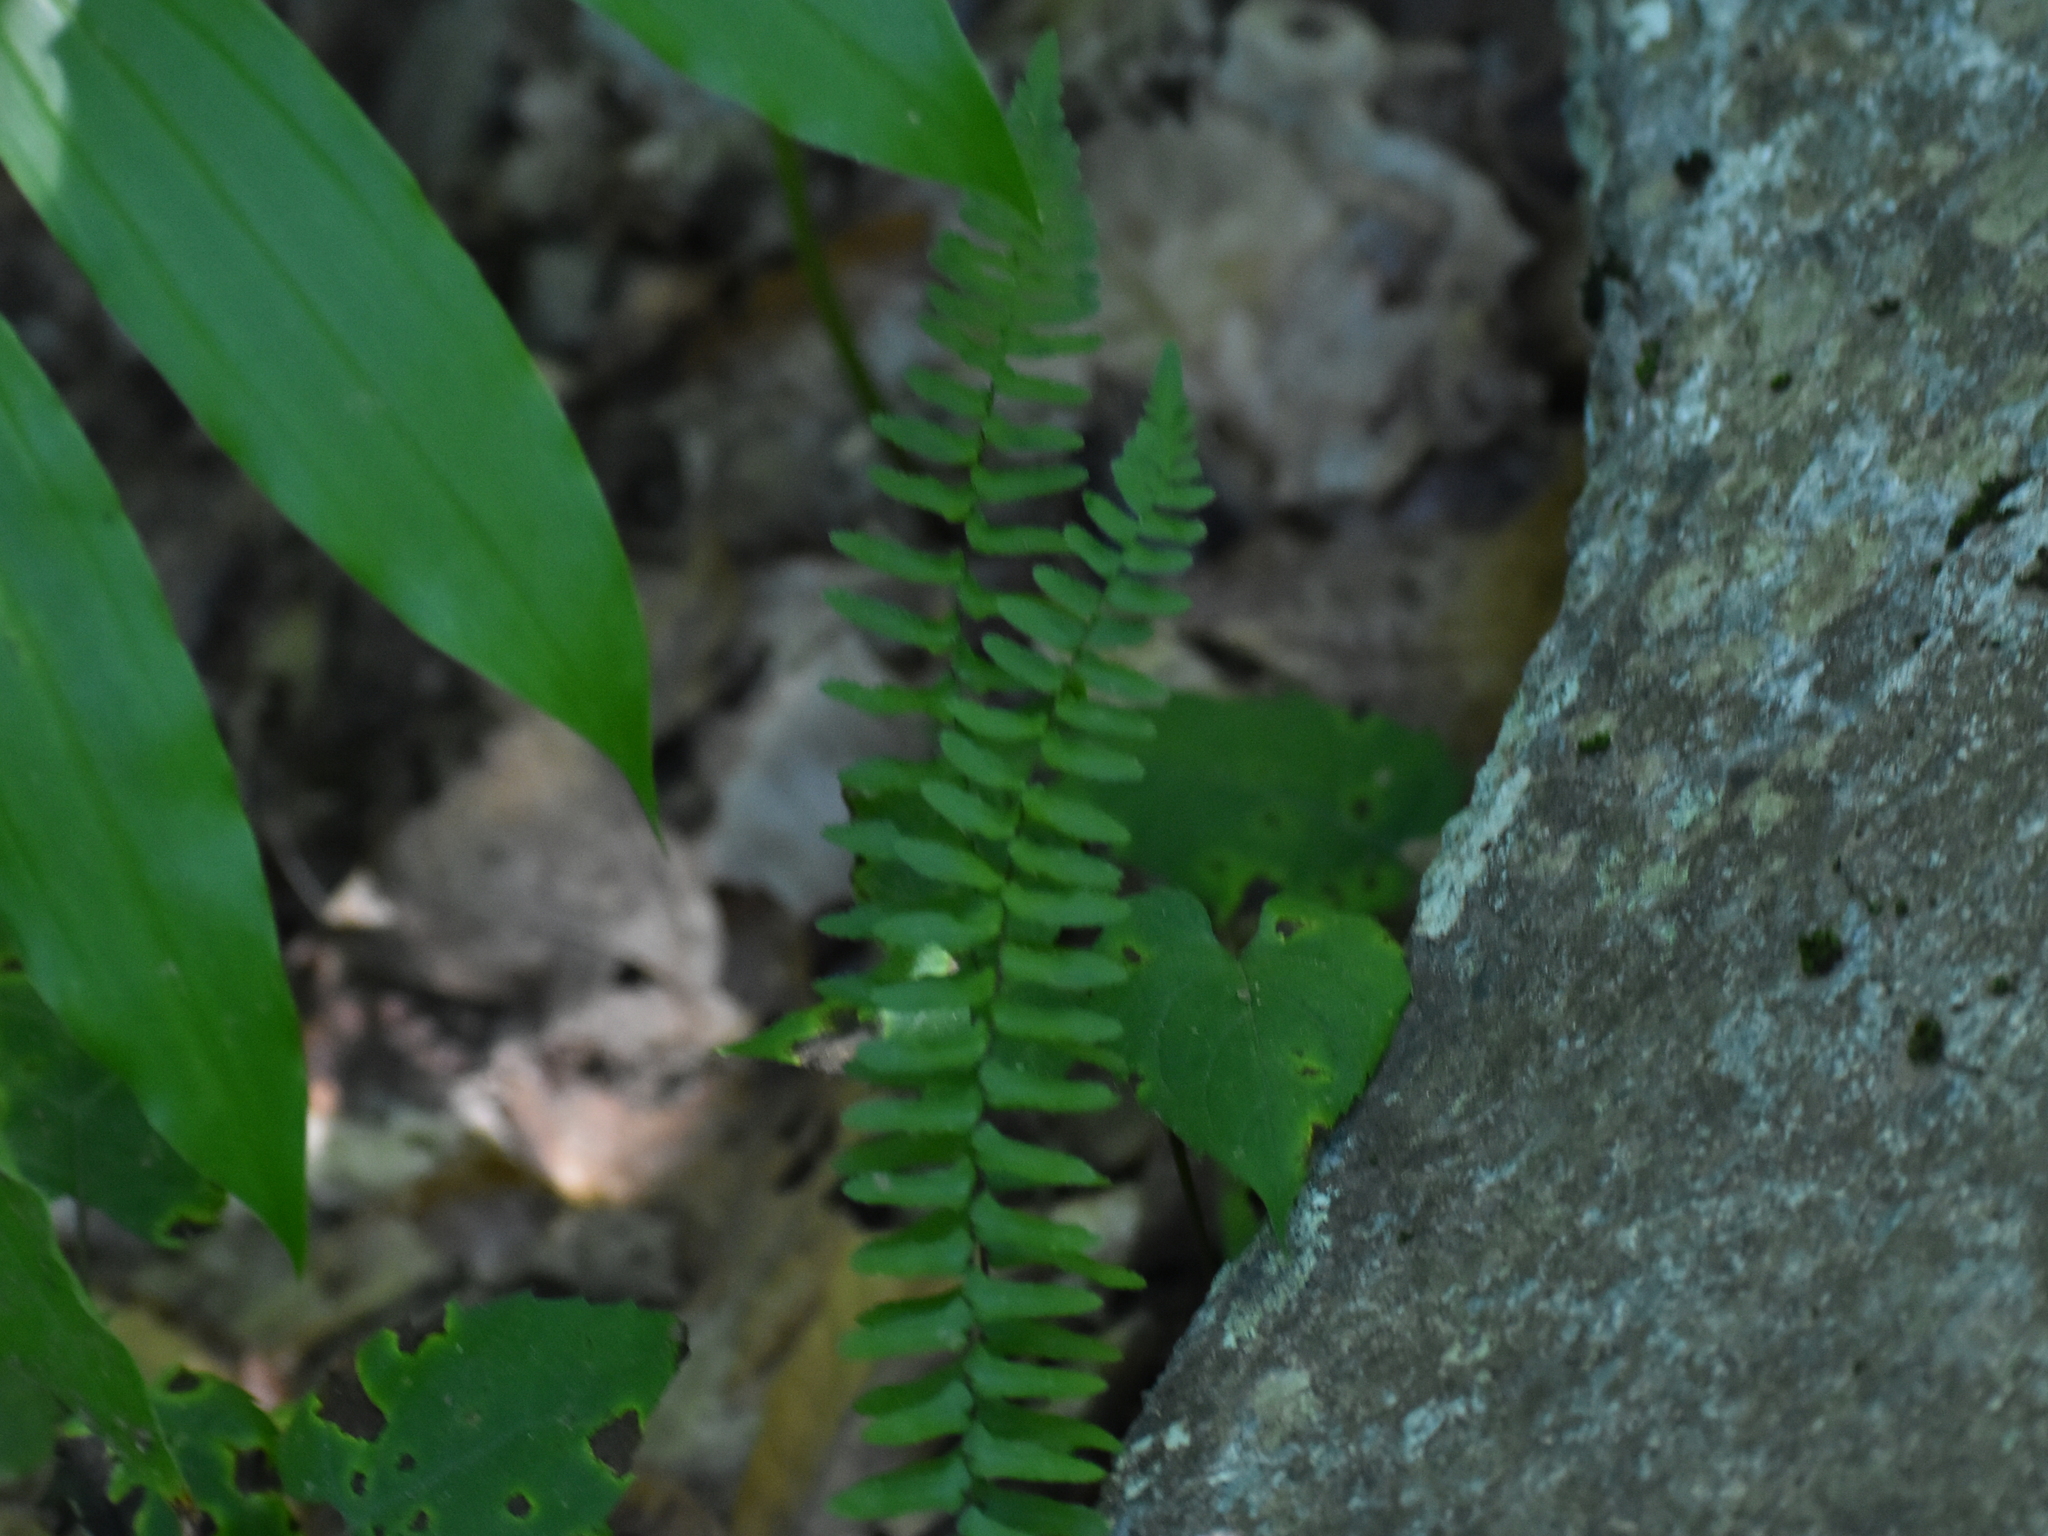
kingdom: Plantae
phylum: Tracheophyta
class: Polypodiopsida
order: Polypodiales
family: Aspleniaceae
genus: Asplenium
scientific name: Asplenium platyneuron
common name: Ebony spleenwort
